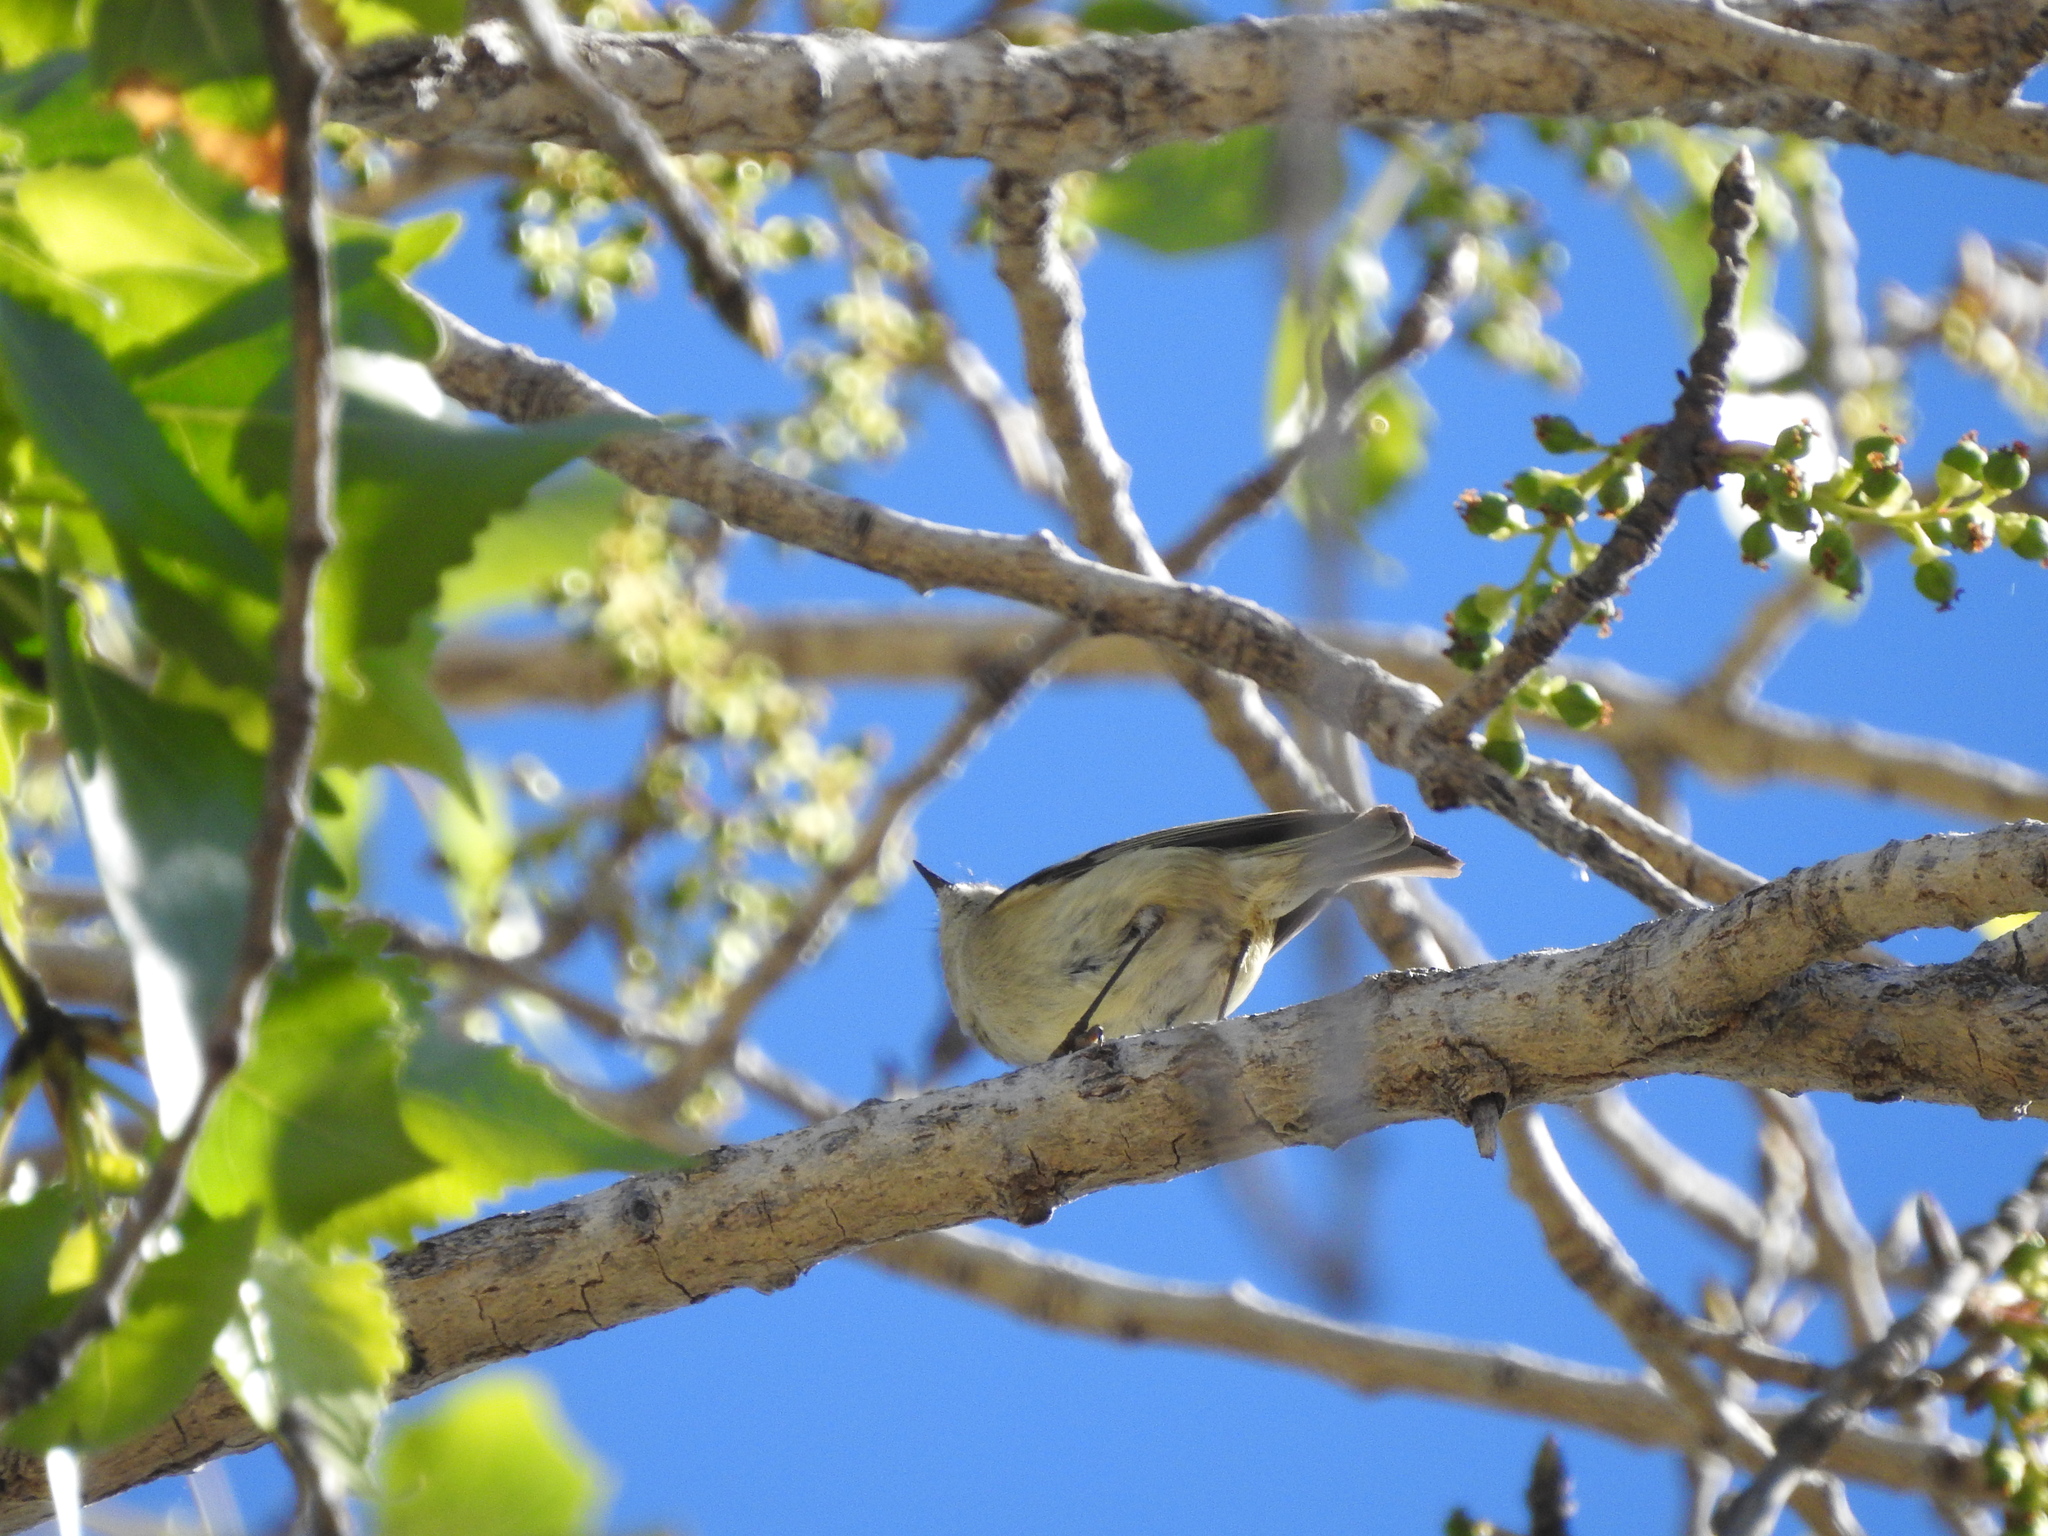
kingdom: Animalia
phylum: Chordata
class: Aves
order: Passeriformes
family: Regulidae
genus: Regulus
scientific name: Regulus calendula
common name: Ruby-crowned kinglet
